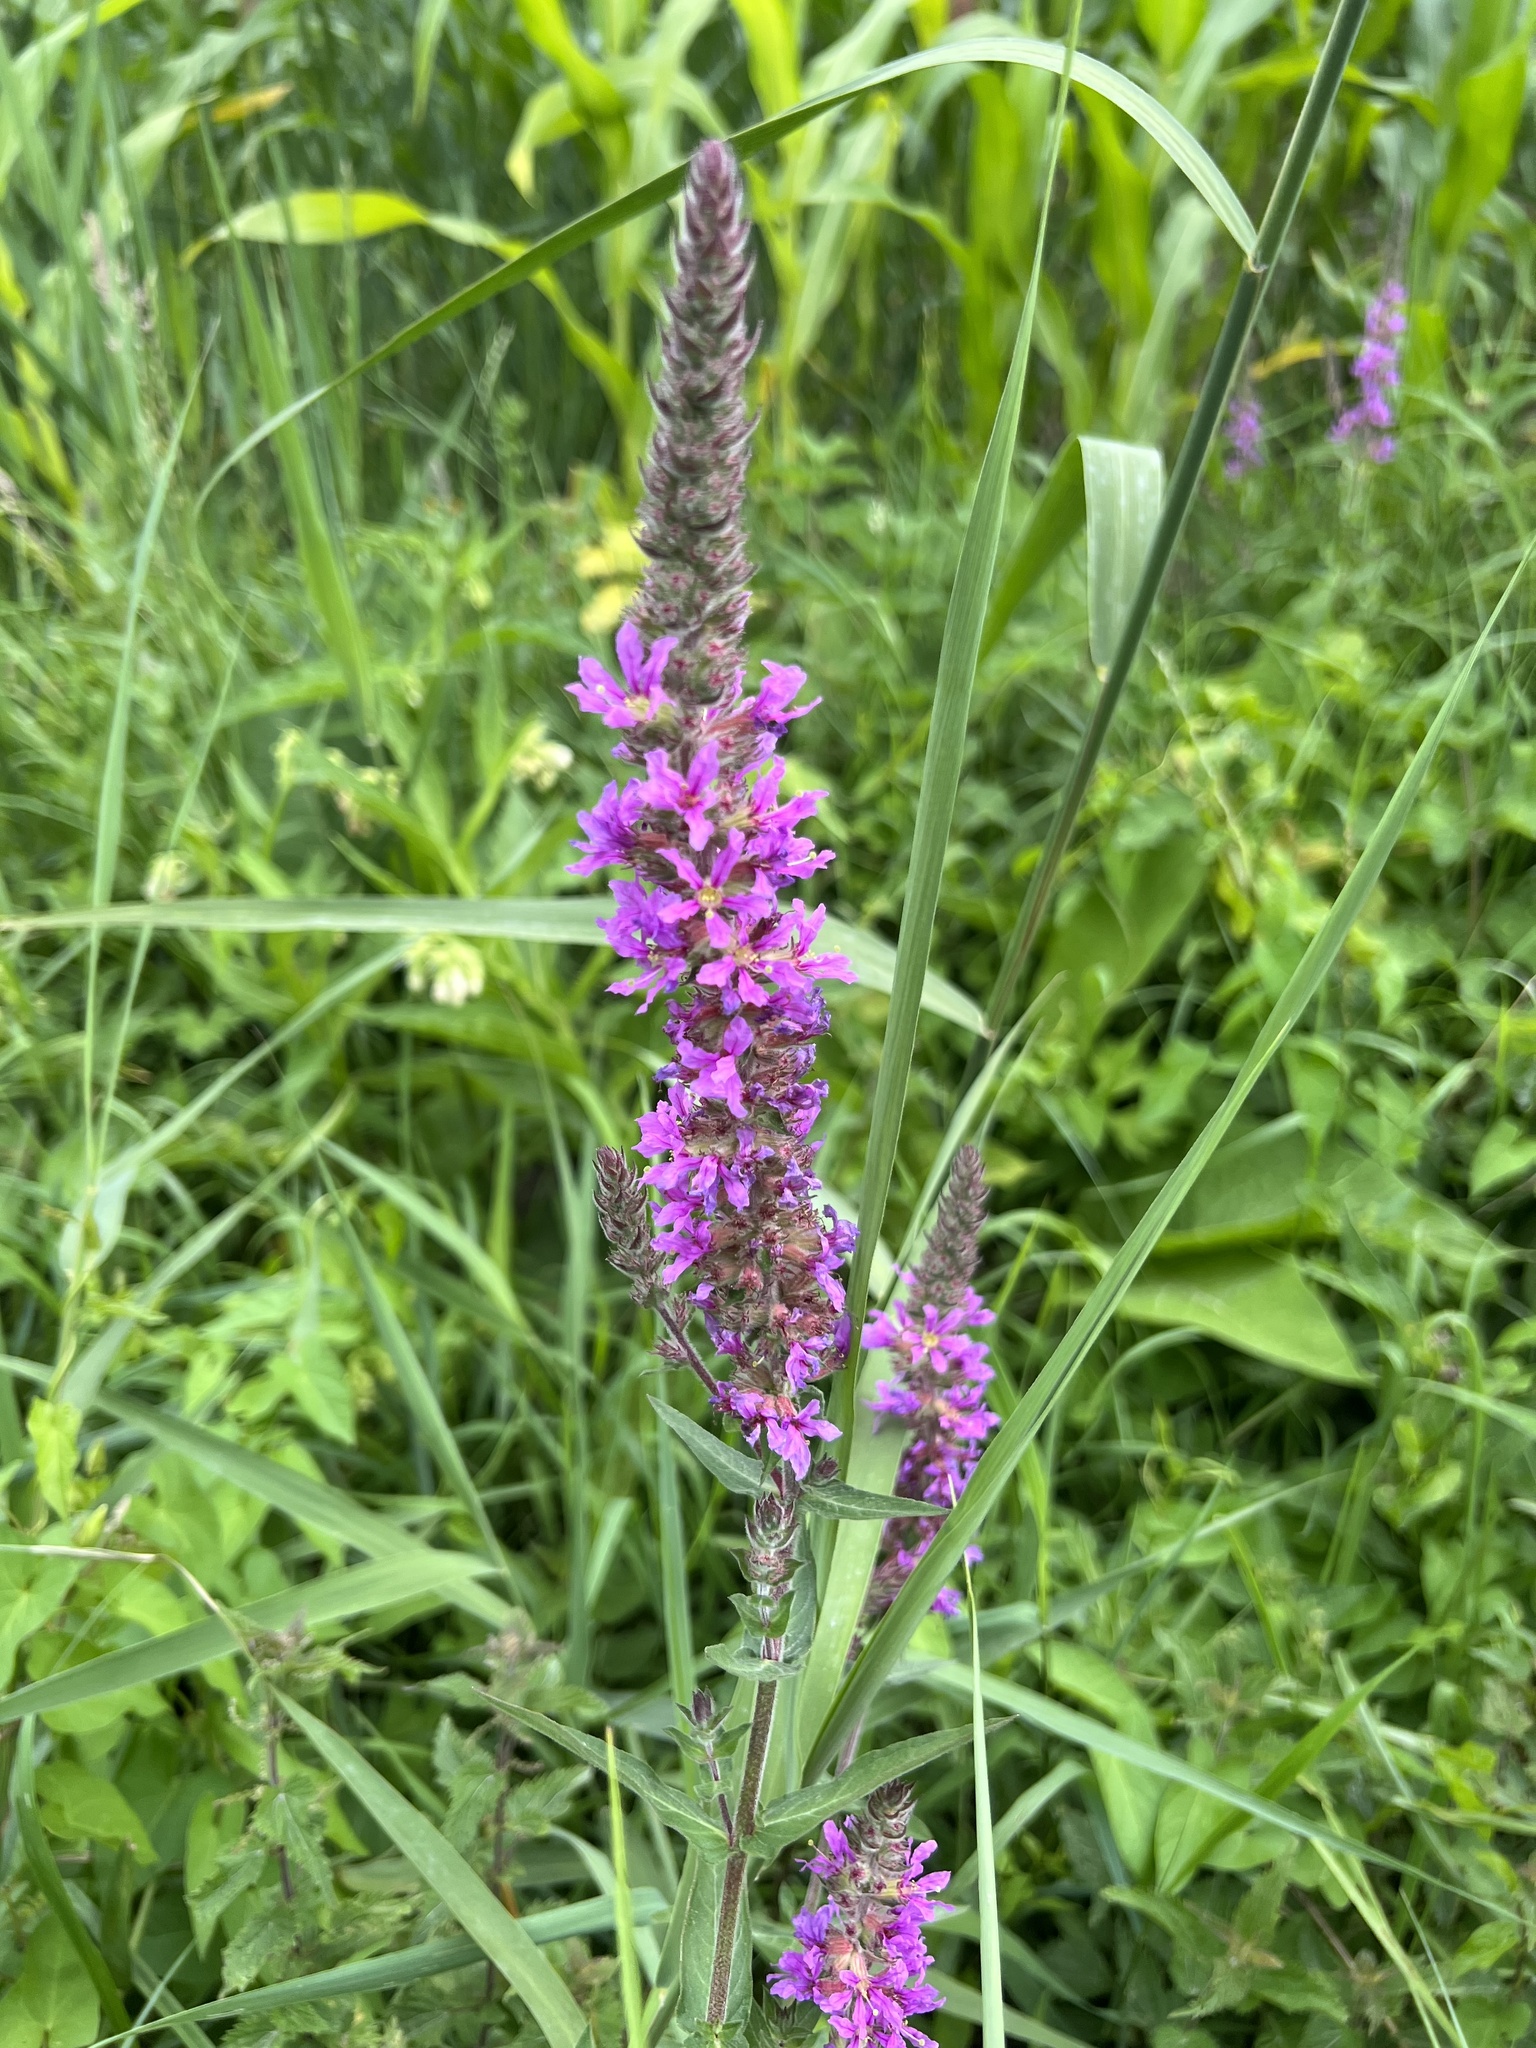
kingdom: Plantae
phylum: Tracheophyta
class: Magnoliopsida
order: Myrtales
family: Lythraceae
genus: Lythrum
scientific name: Lythrum salicaria
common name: Purple loosestrife
